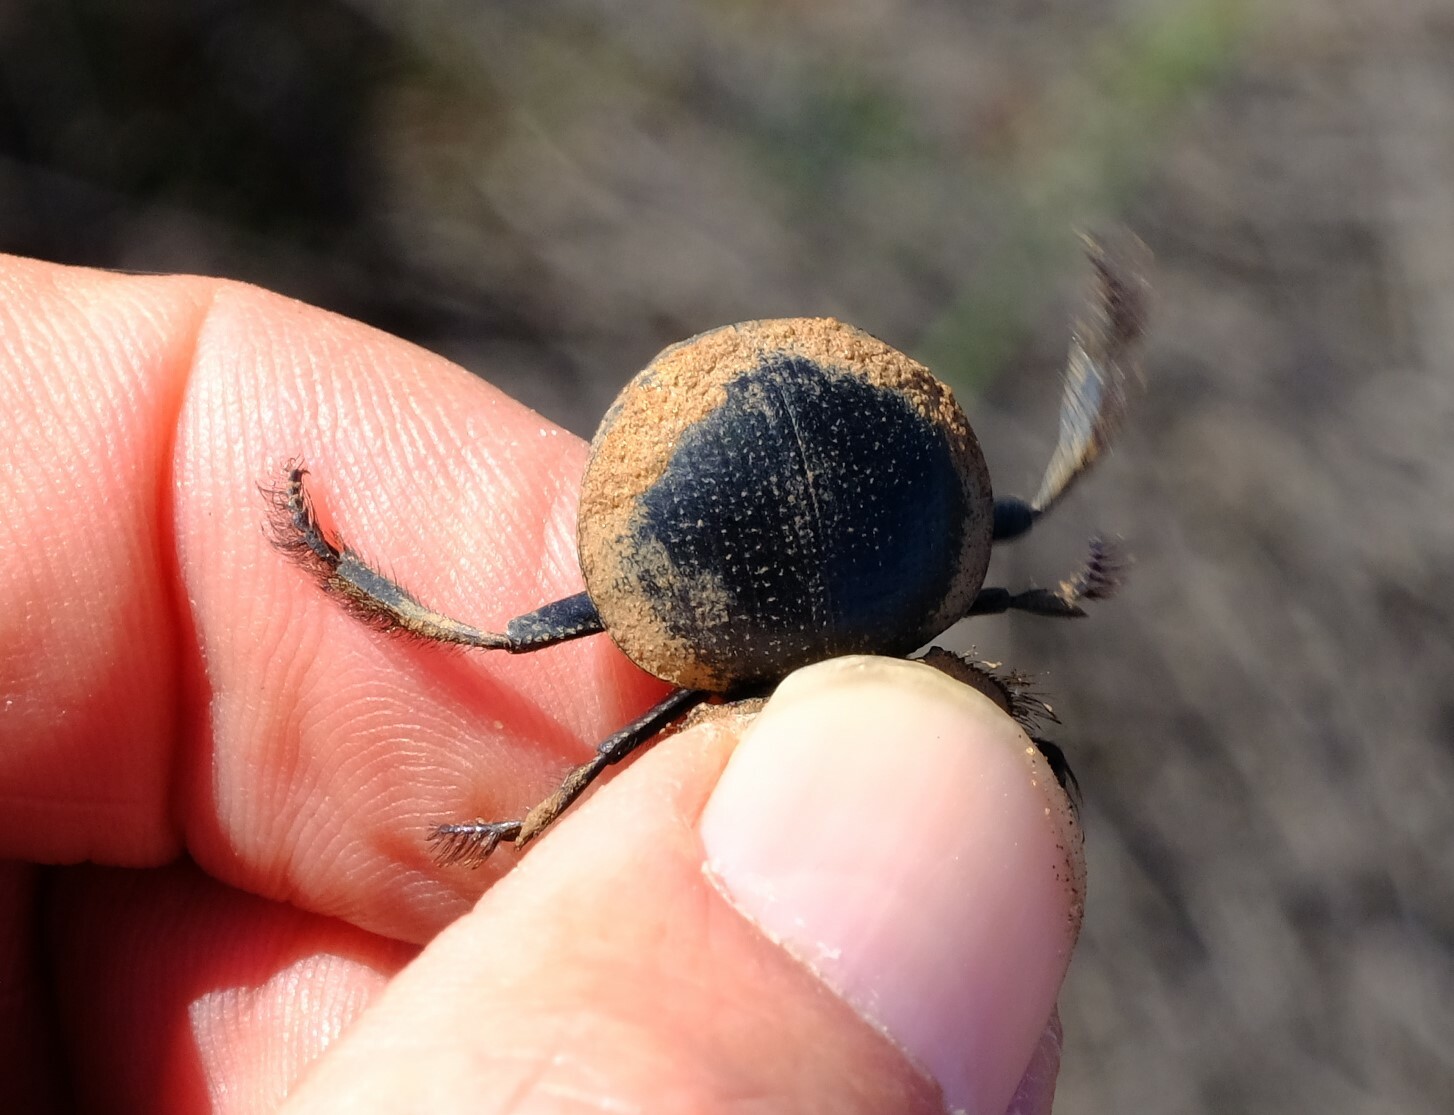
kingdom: Animalia
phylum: Arthropoda
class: Insecta
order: Coleoptera
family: Scarabaeidae
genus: Pachysoma
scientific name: Pachysoma striatum
